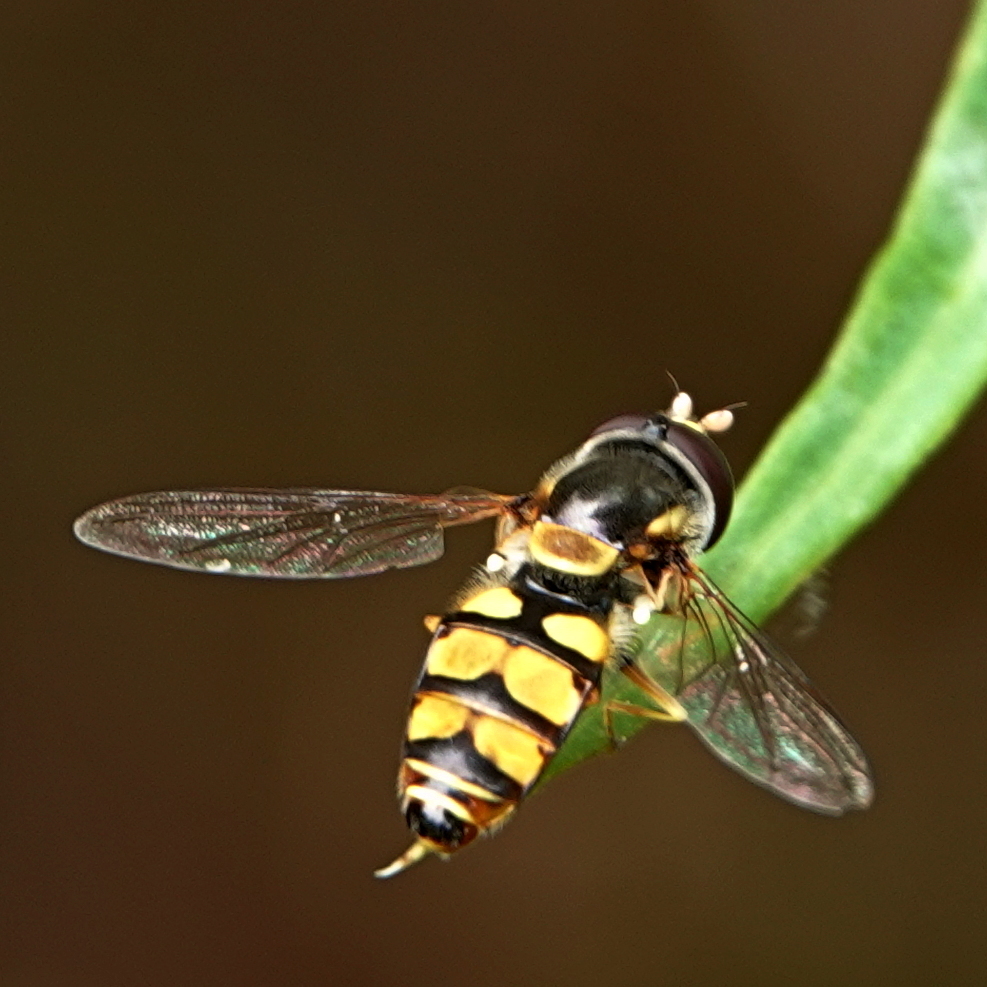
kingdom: Animalia
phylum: Arthropoda
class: Insecta
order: Diptera
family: Syrphidae
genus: Simosyrphus
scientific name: Simosyrphus grandicornis
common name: Hoverfly
